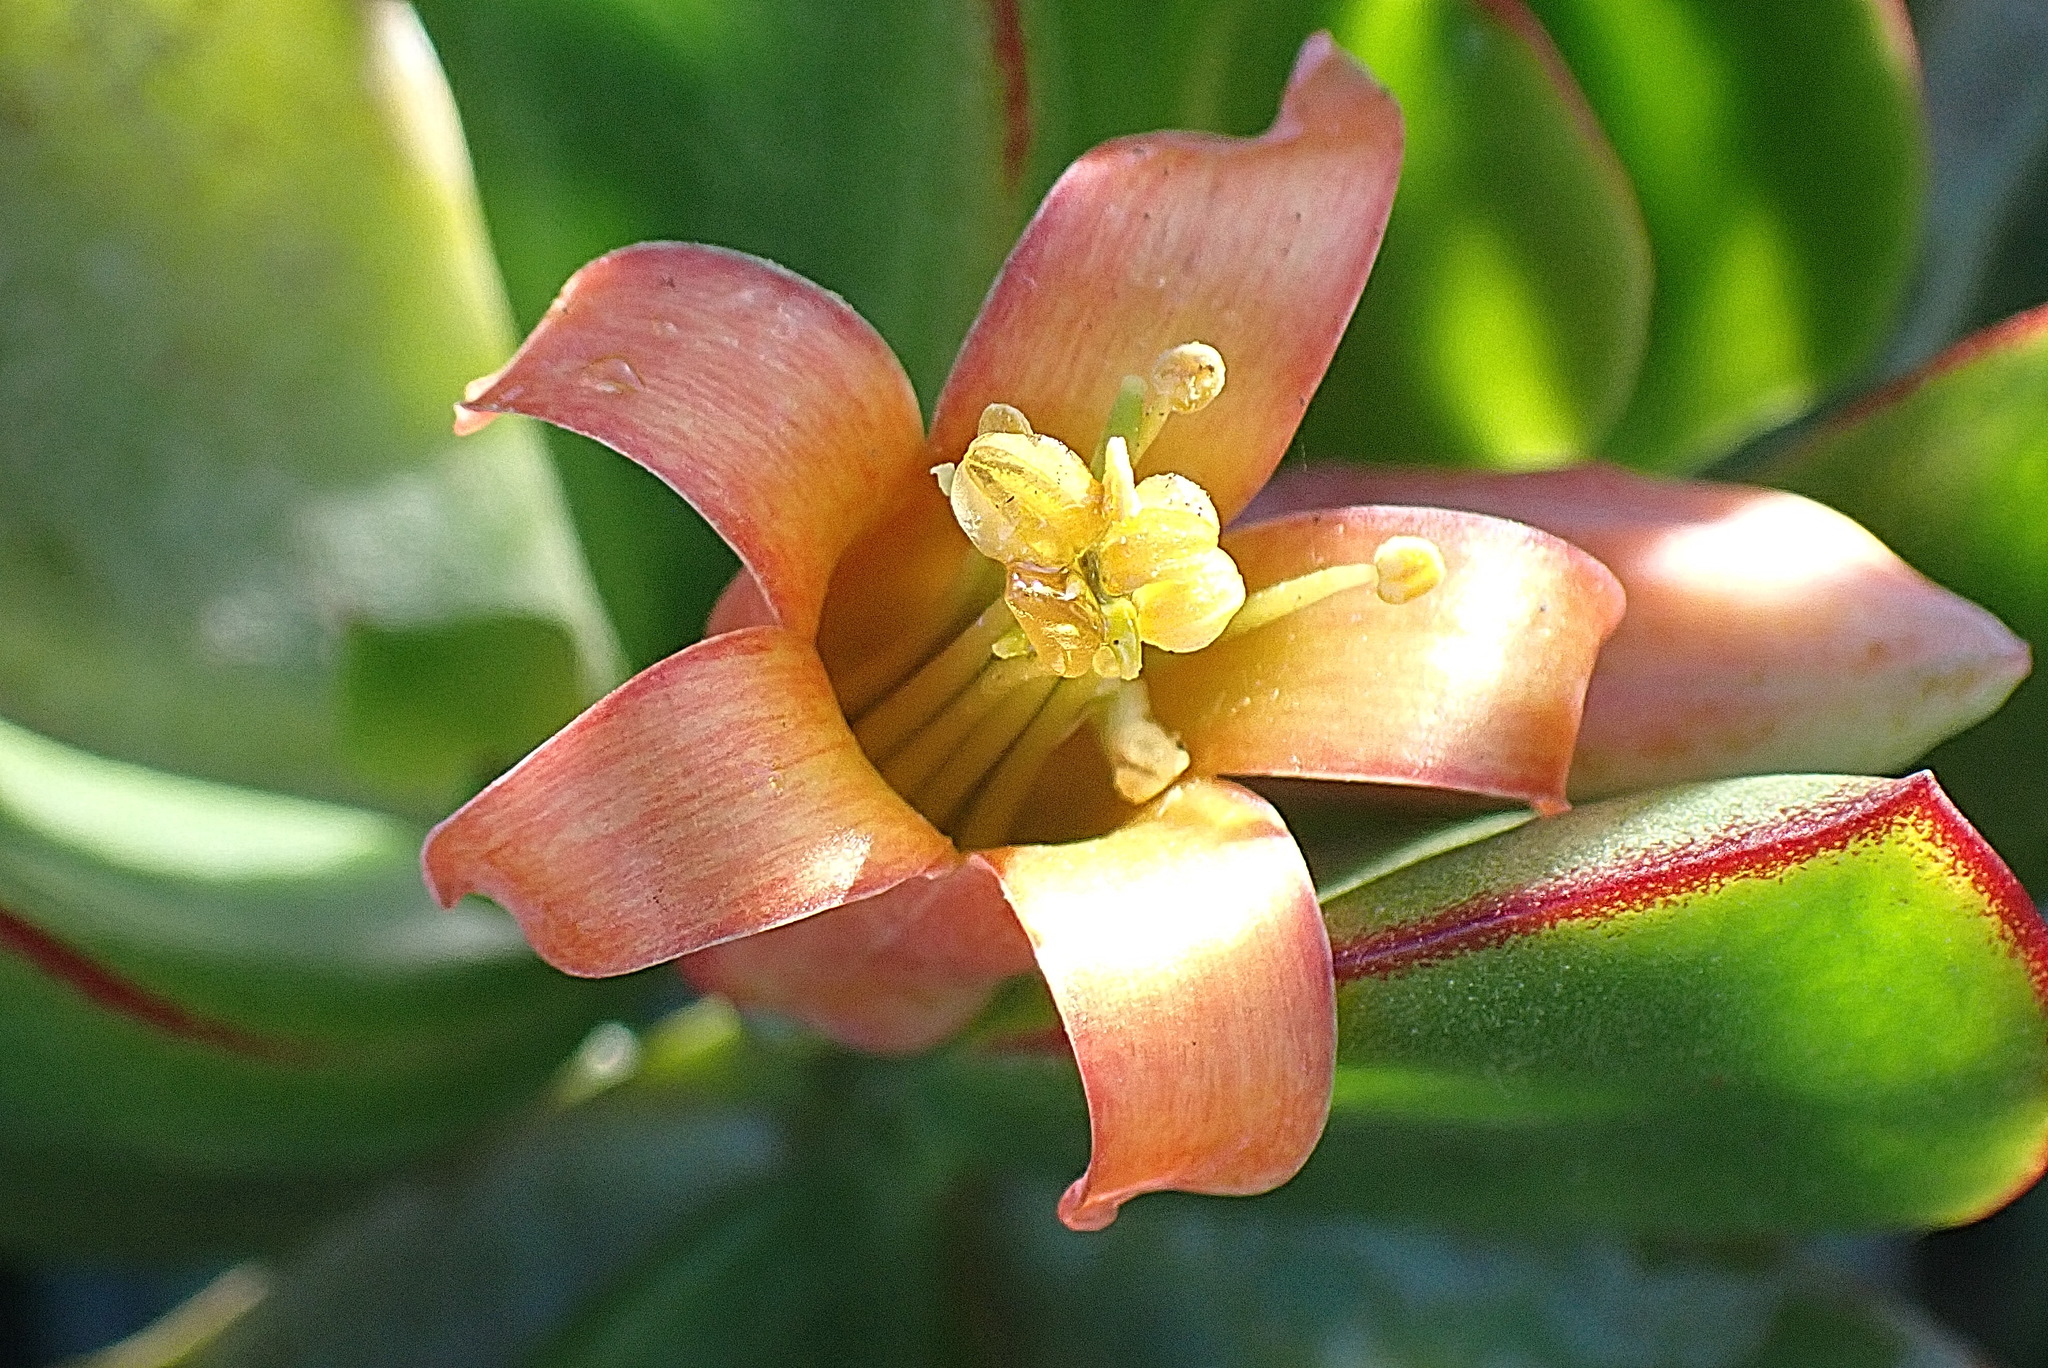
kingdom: Plantae
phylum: Tracheophyta
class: Magnoliopsida
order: Saxifragales
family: Crassulaceae
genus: Cotyledon
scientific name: Cotyledon orbiculata
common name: Pig's ear
